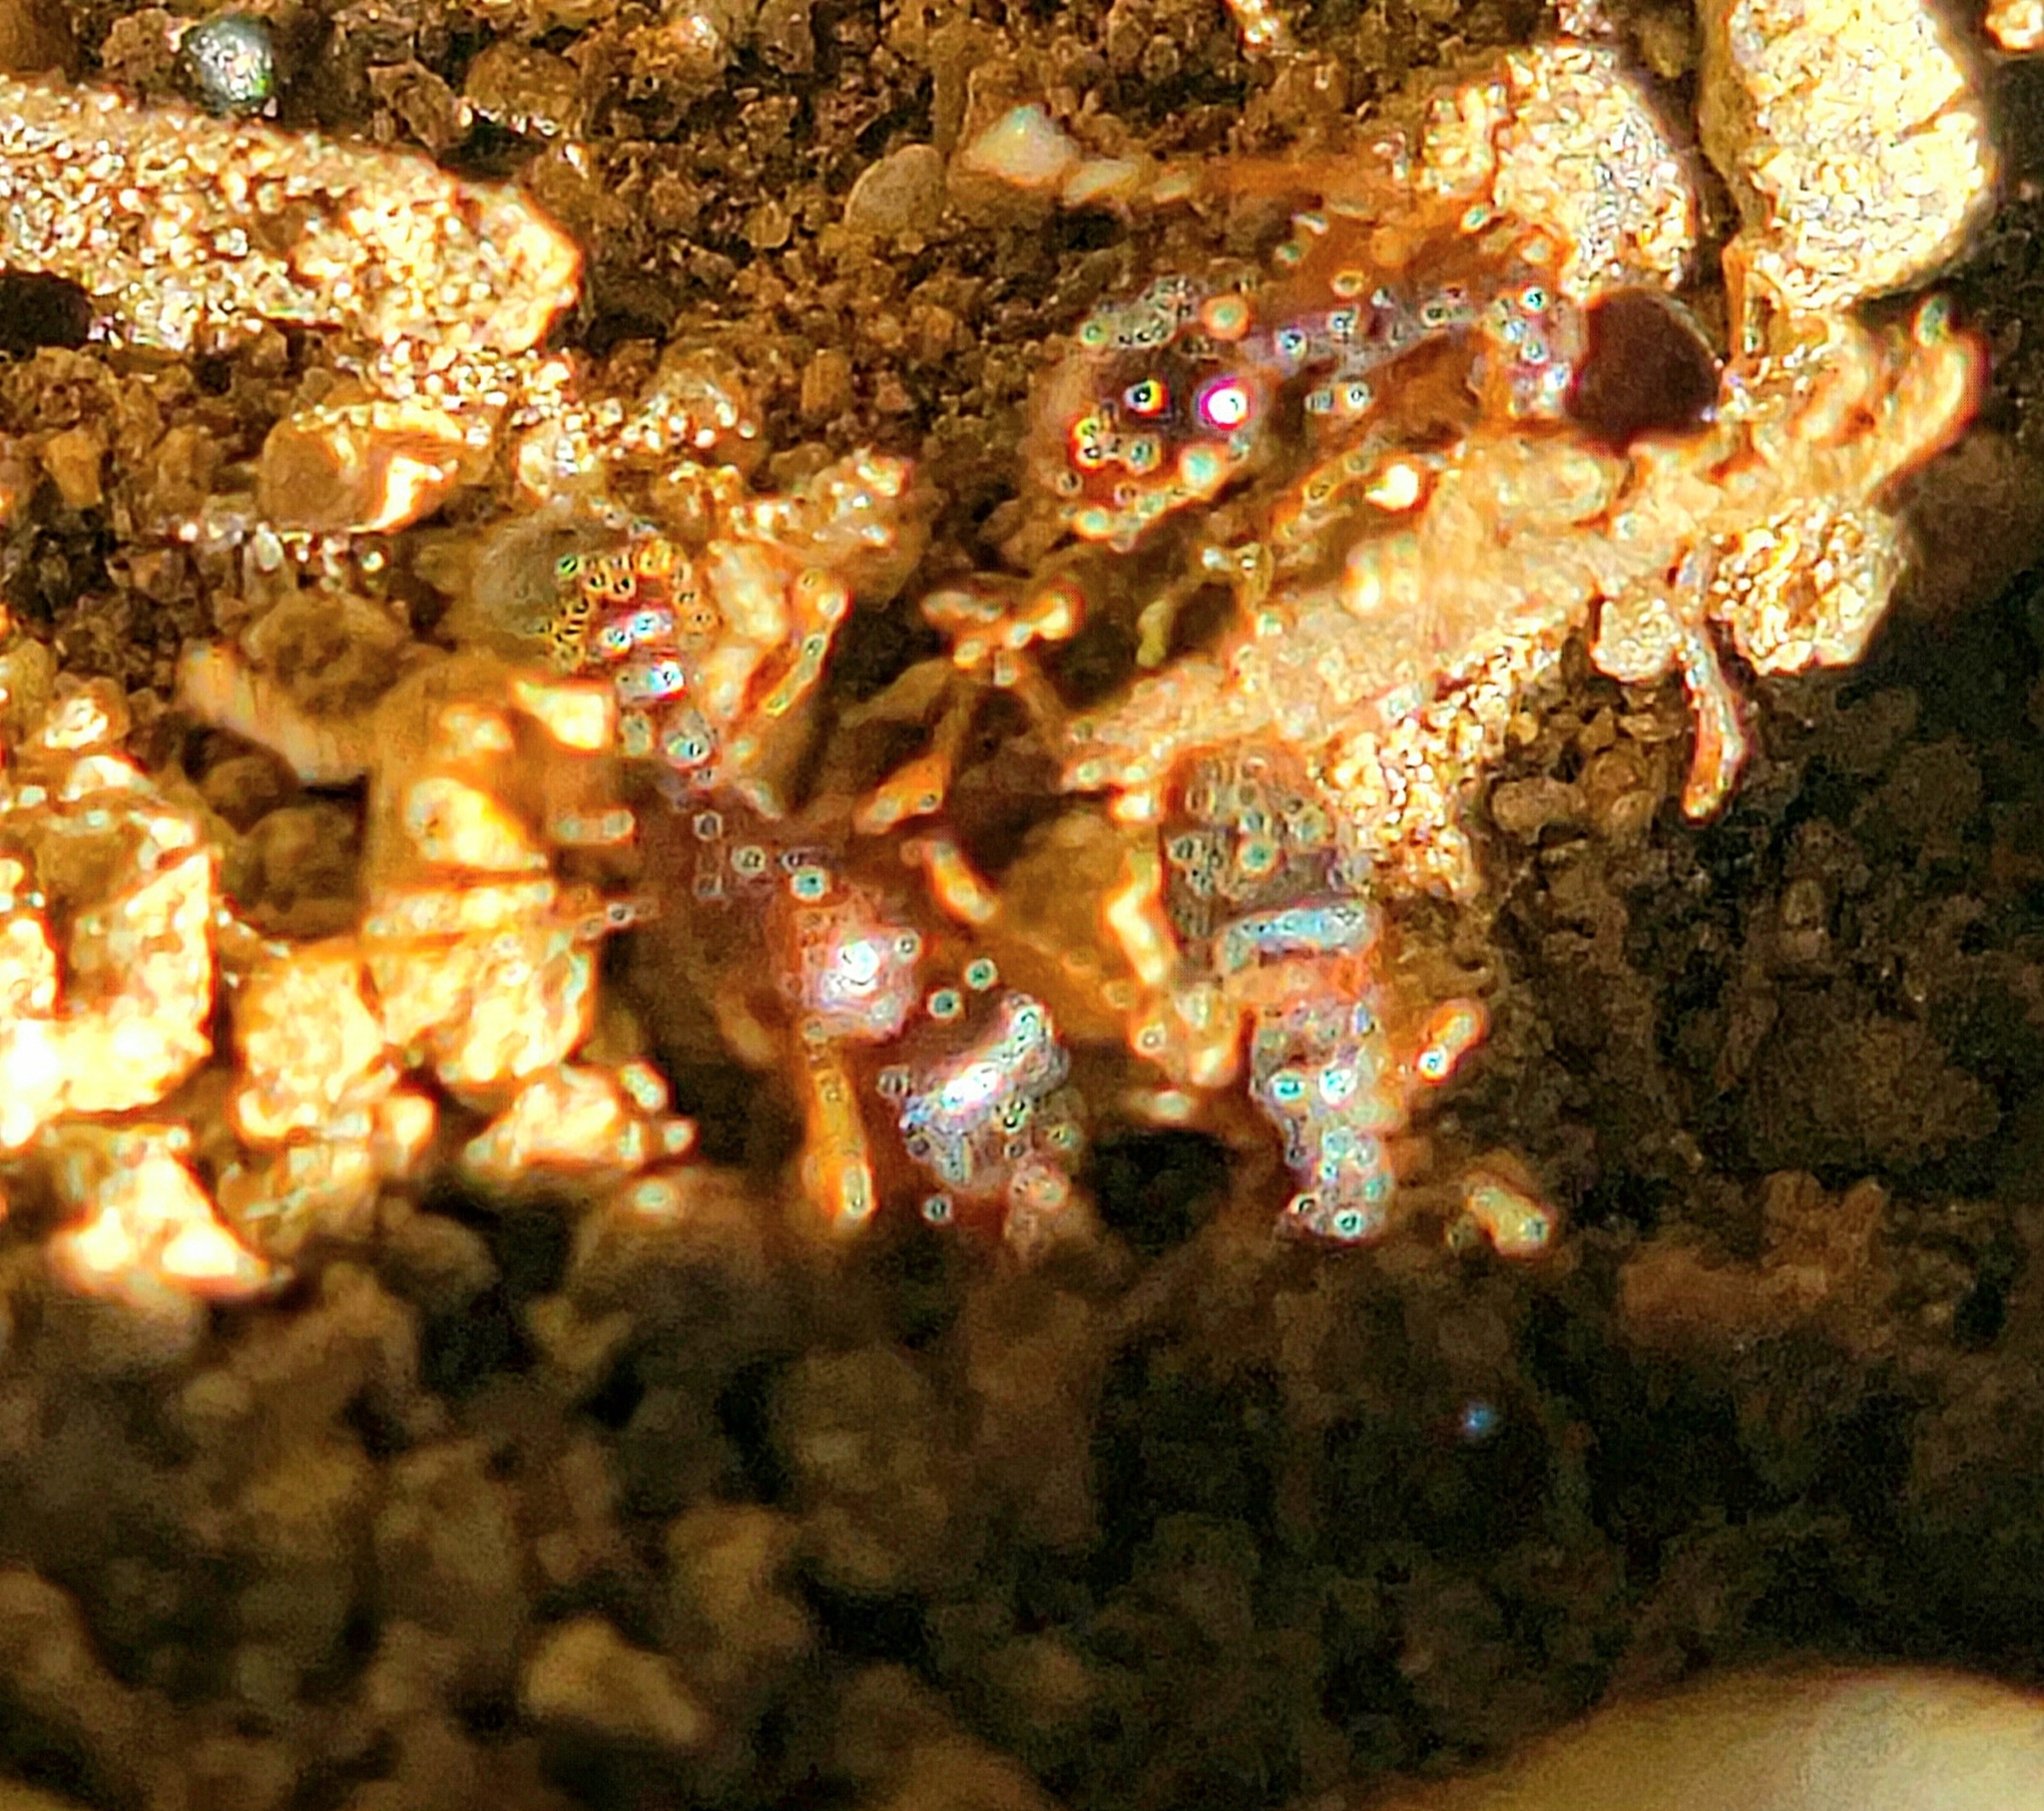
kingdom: Animalia
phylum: Arthropoda
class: Insecta
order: Hymenoptera
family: Formicidae
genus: Tetramorium
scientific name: Tetramorium immigrans
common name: Pavement ant
